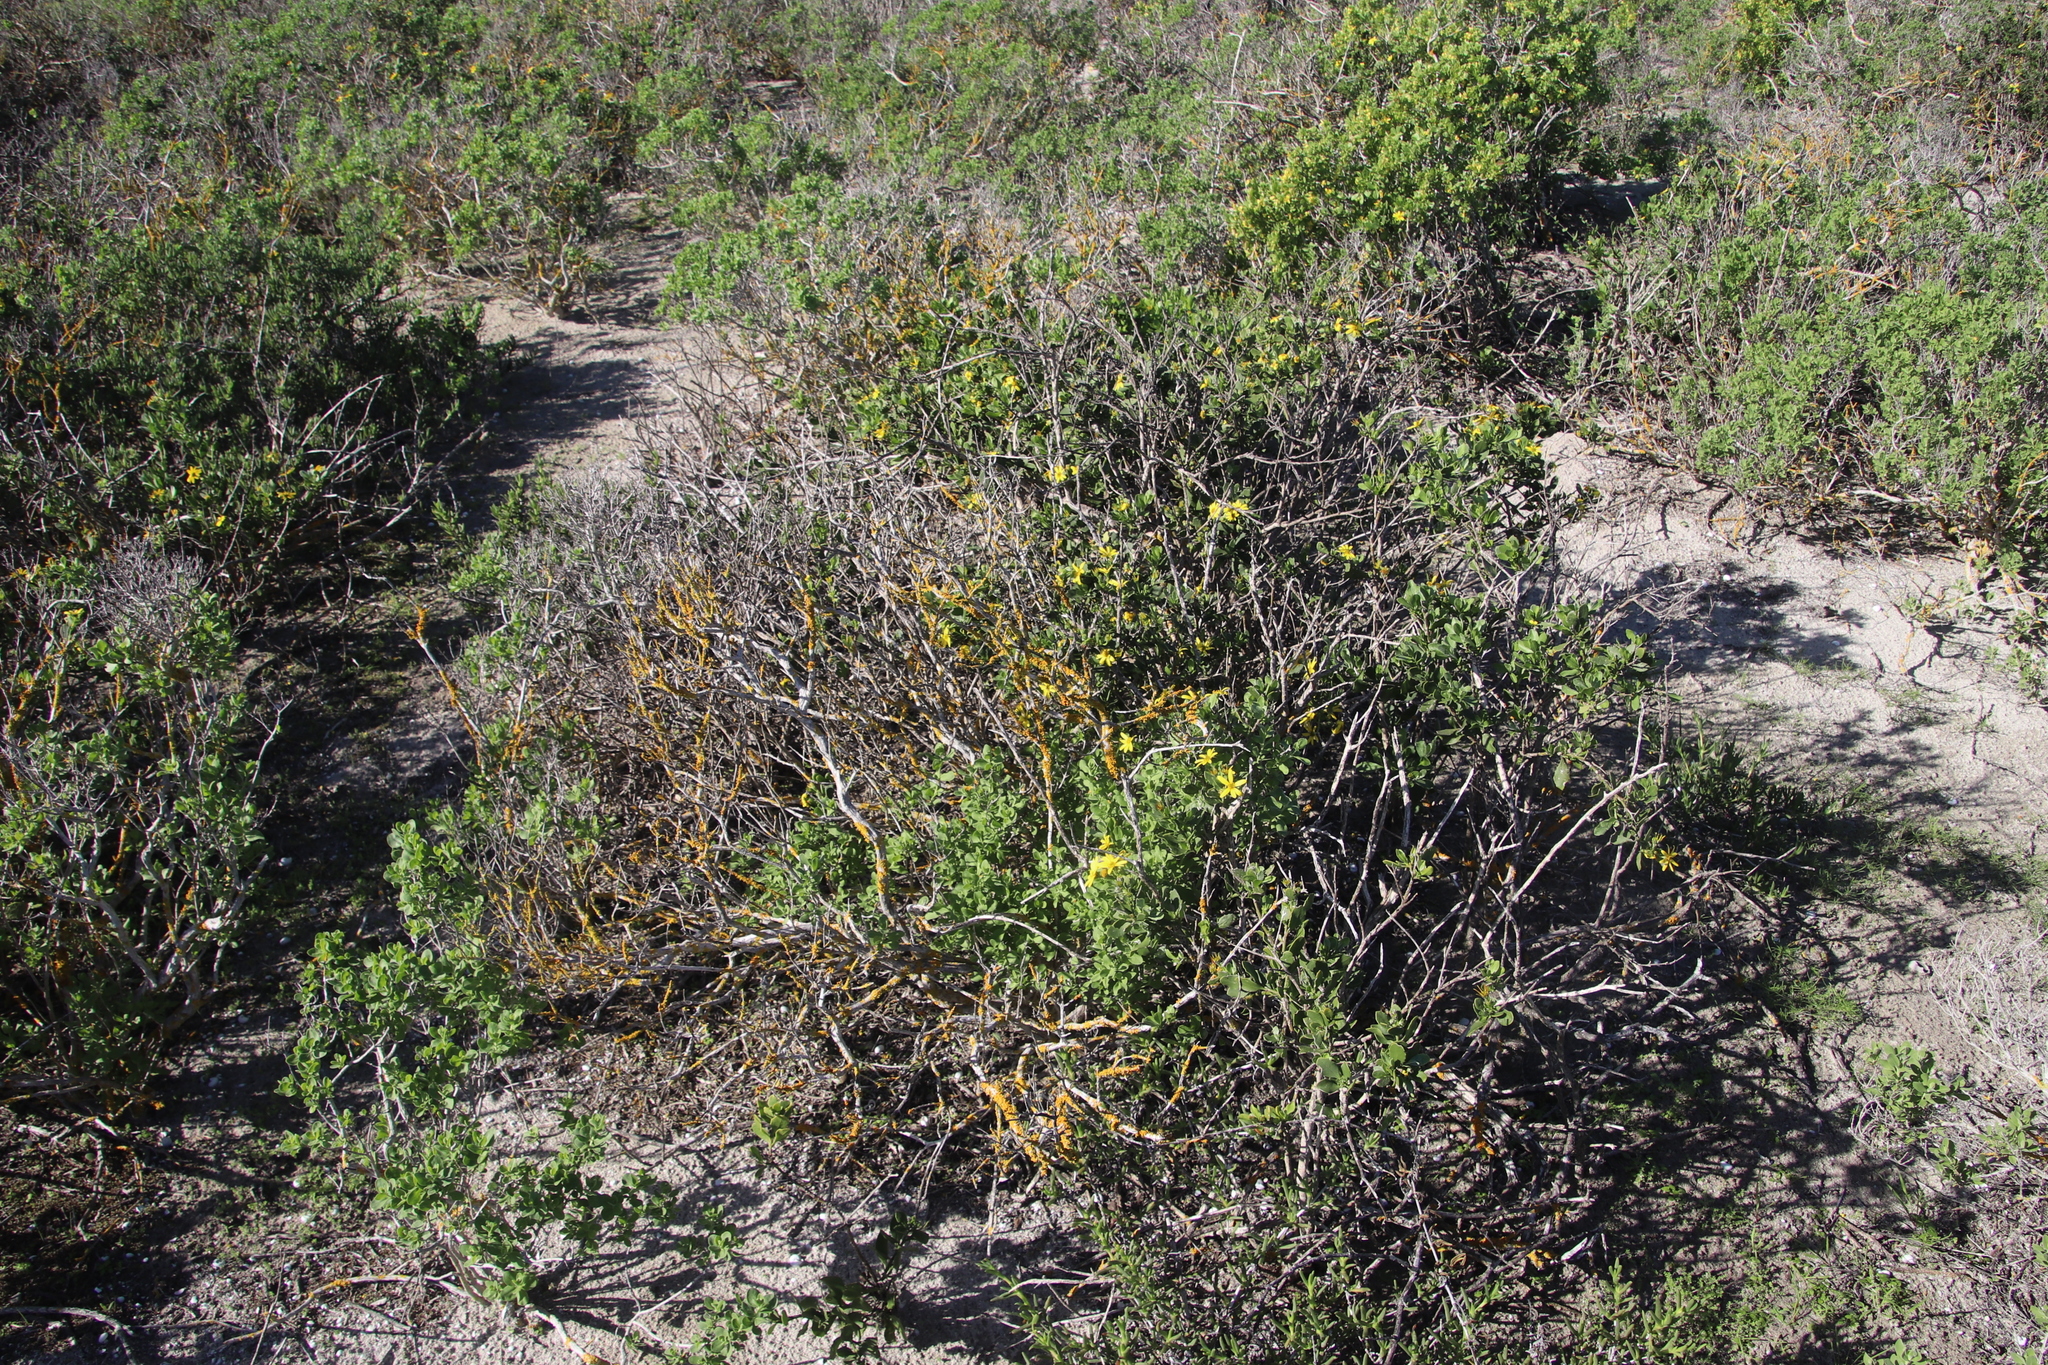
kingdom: Fungi
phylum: Ascomycota
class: Lecanoromycetes
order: Teloschistales
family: Teloschistaceae
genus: Xanthoria
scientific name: Xanthoria parietina
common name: Common orange lichen
